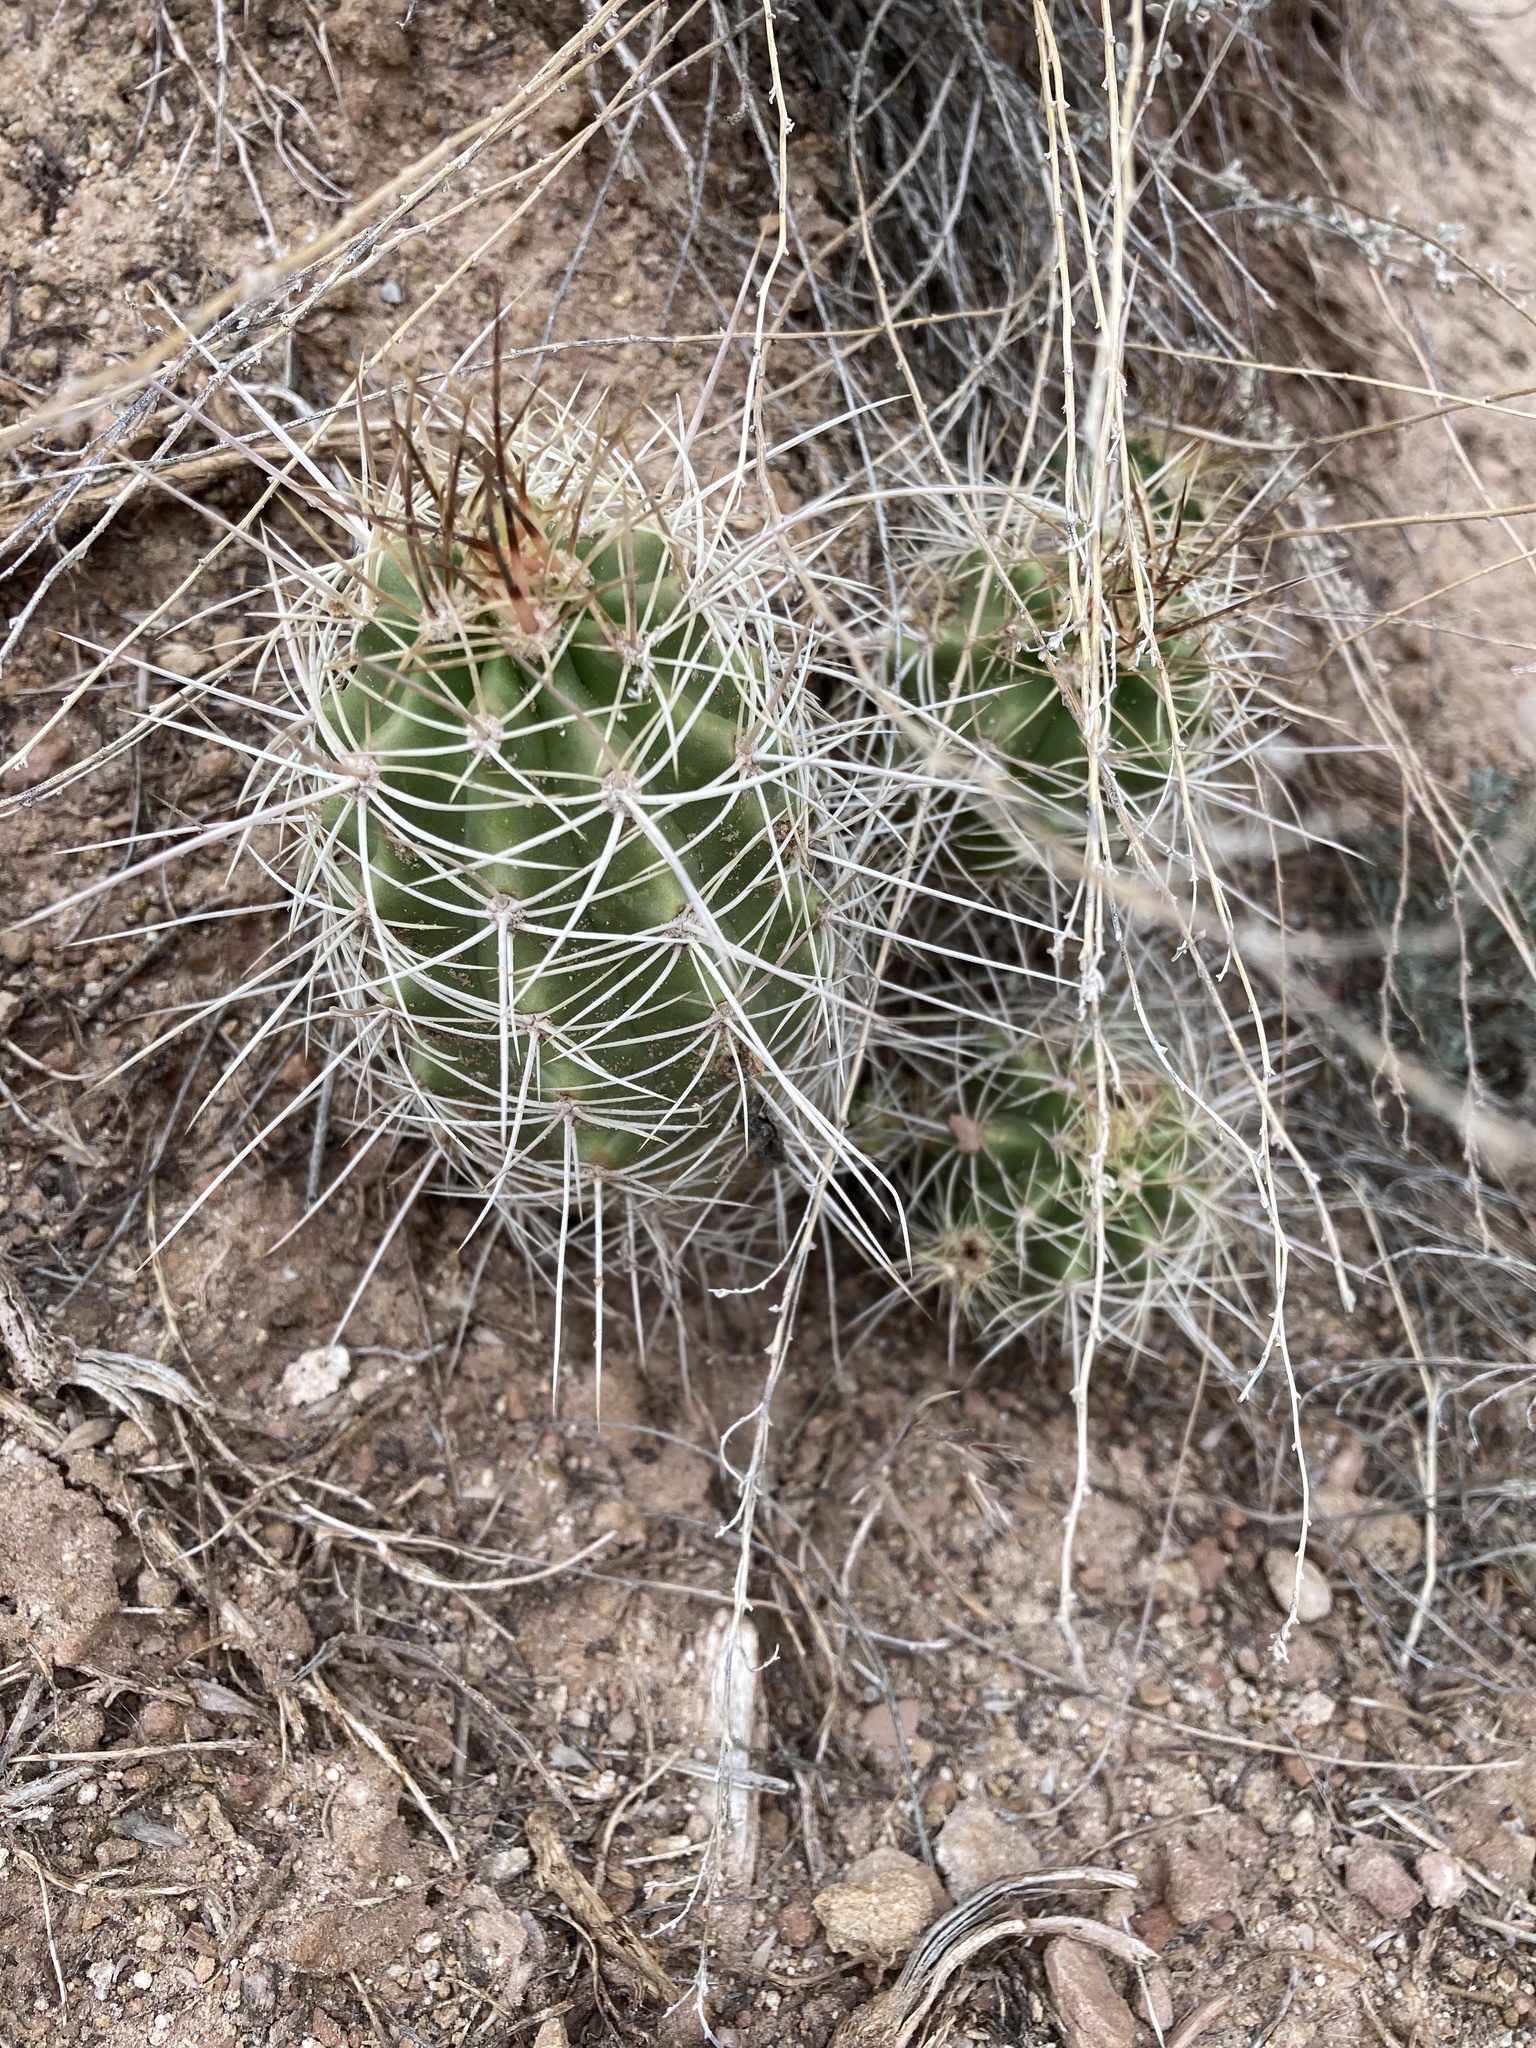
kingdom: Plantae
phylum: Tracheophyta
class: Magnoliopsida
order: Caryophyllales
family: Cactaceae
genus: Echinocereus
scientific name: Echinocereus triglochidiatus
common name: Claretcup hedgehog
